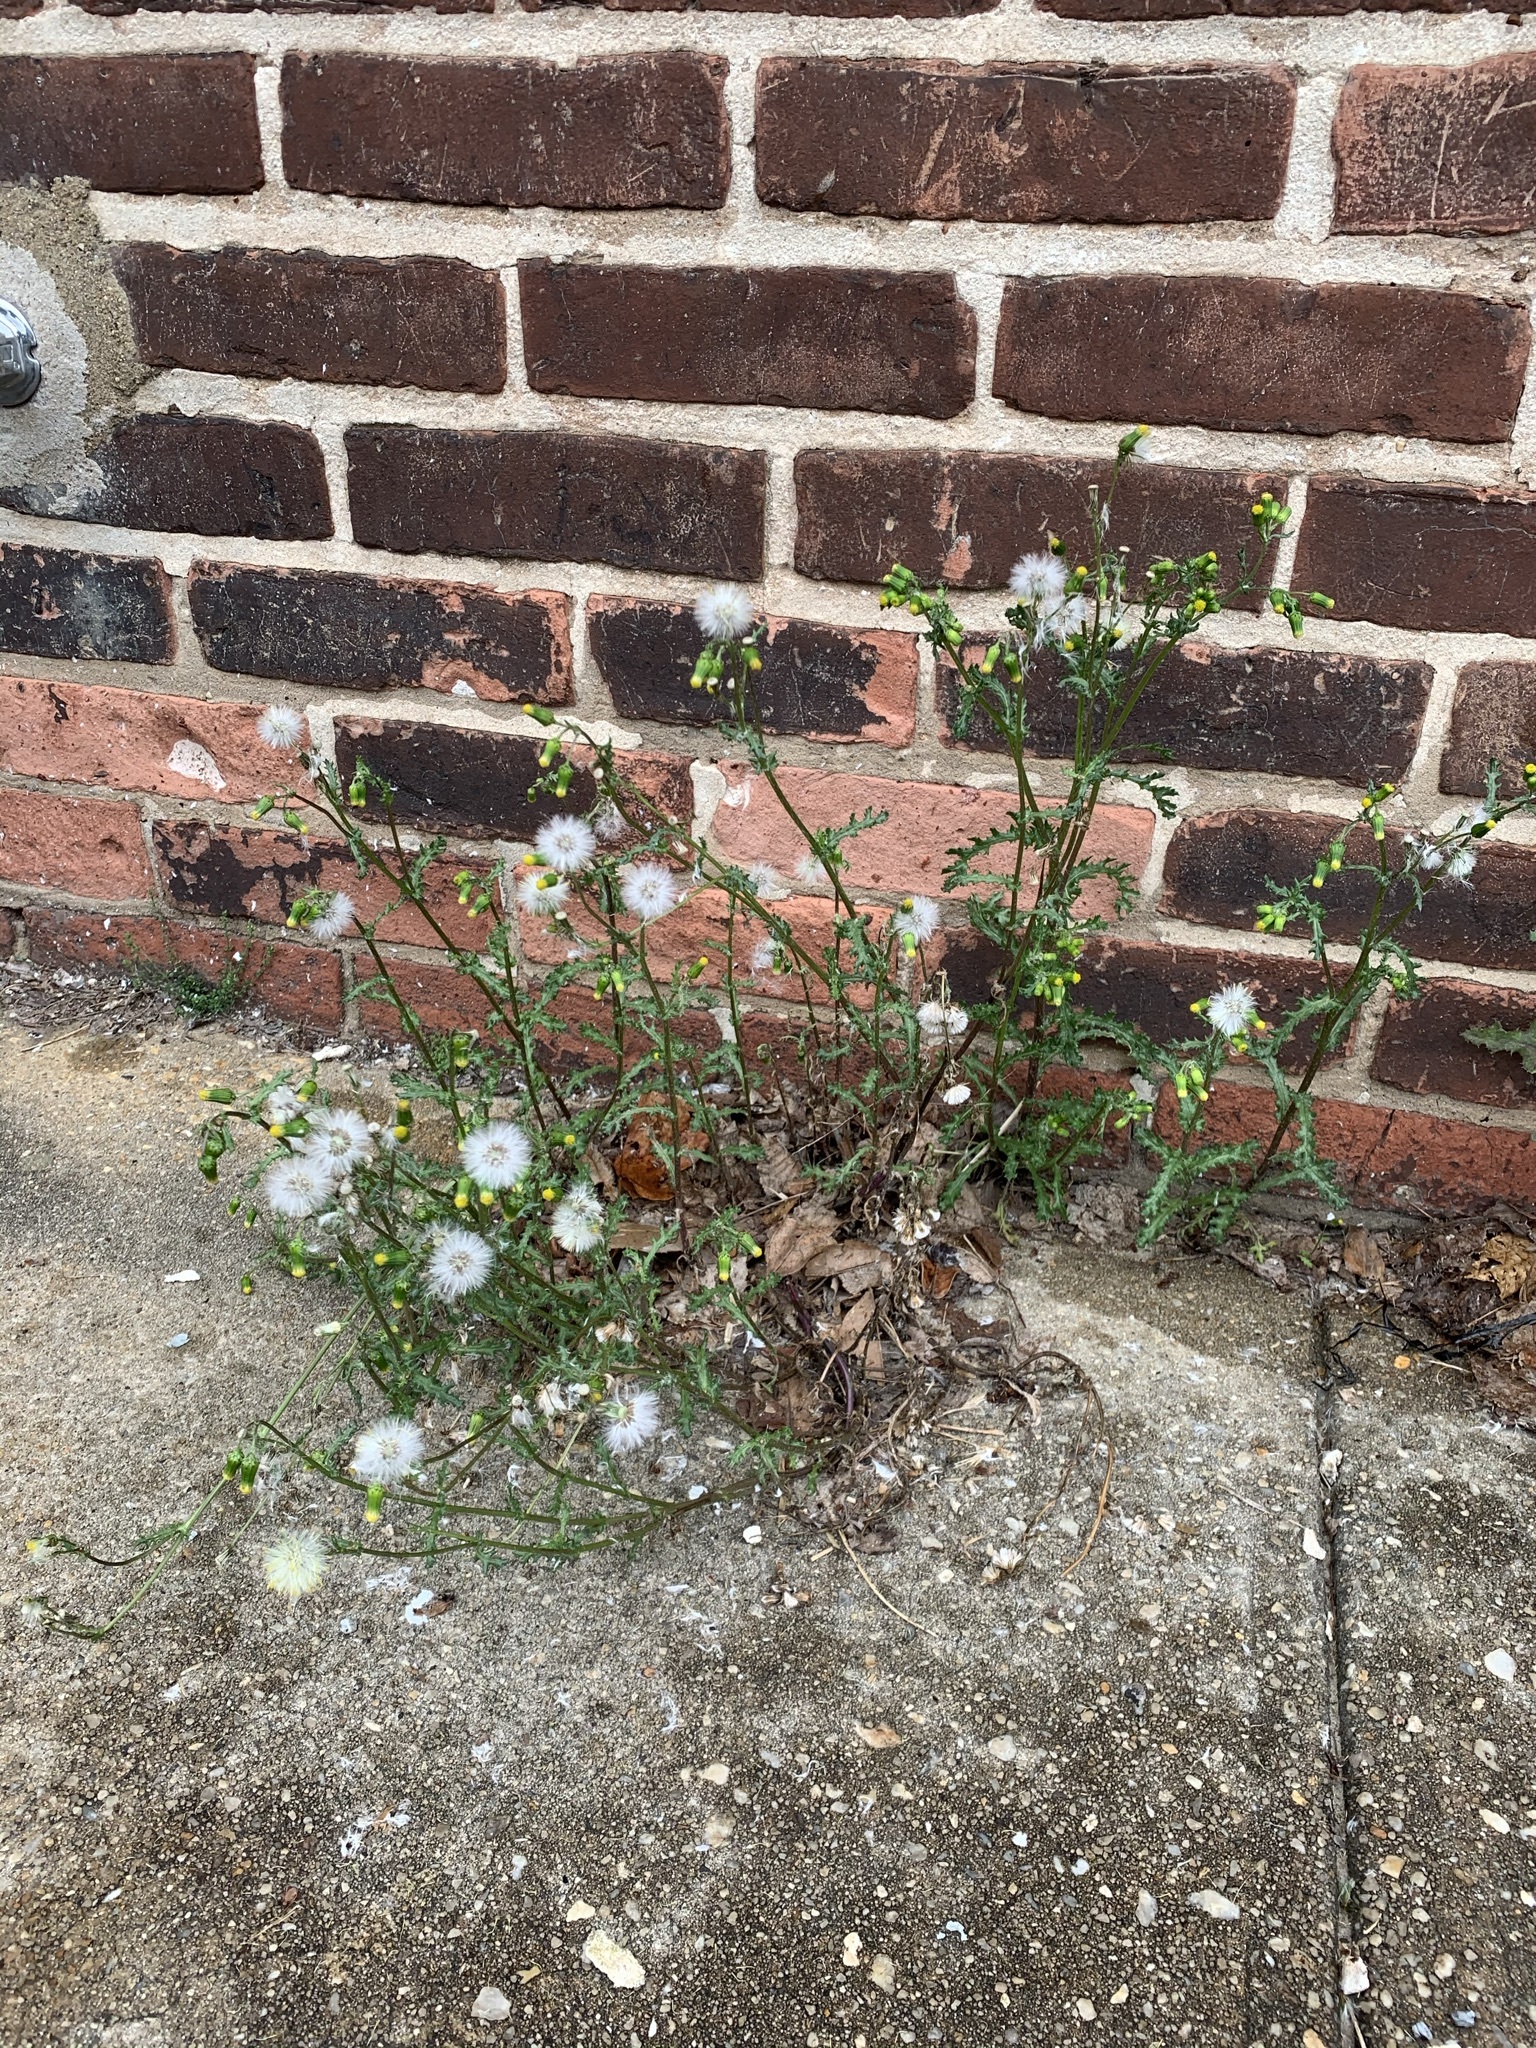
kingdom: Plantae
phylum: Tracheophyta
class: Magnoliopsida
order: Asterales
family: Asteraceae
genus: Senecio
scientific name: Senecio vulgaris
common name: Old-man-in-the-spring
